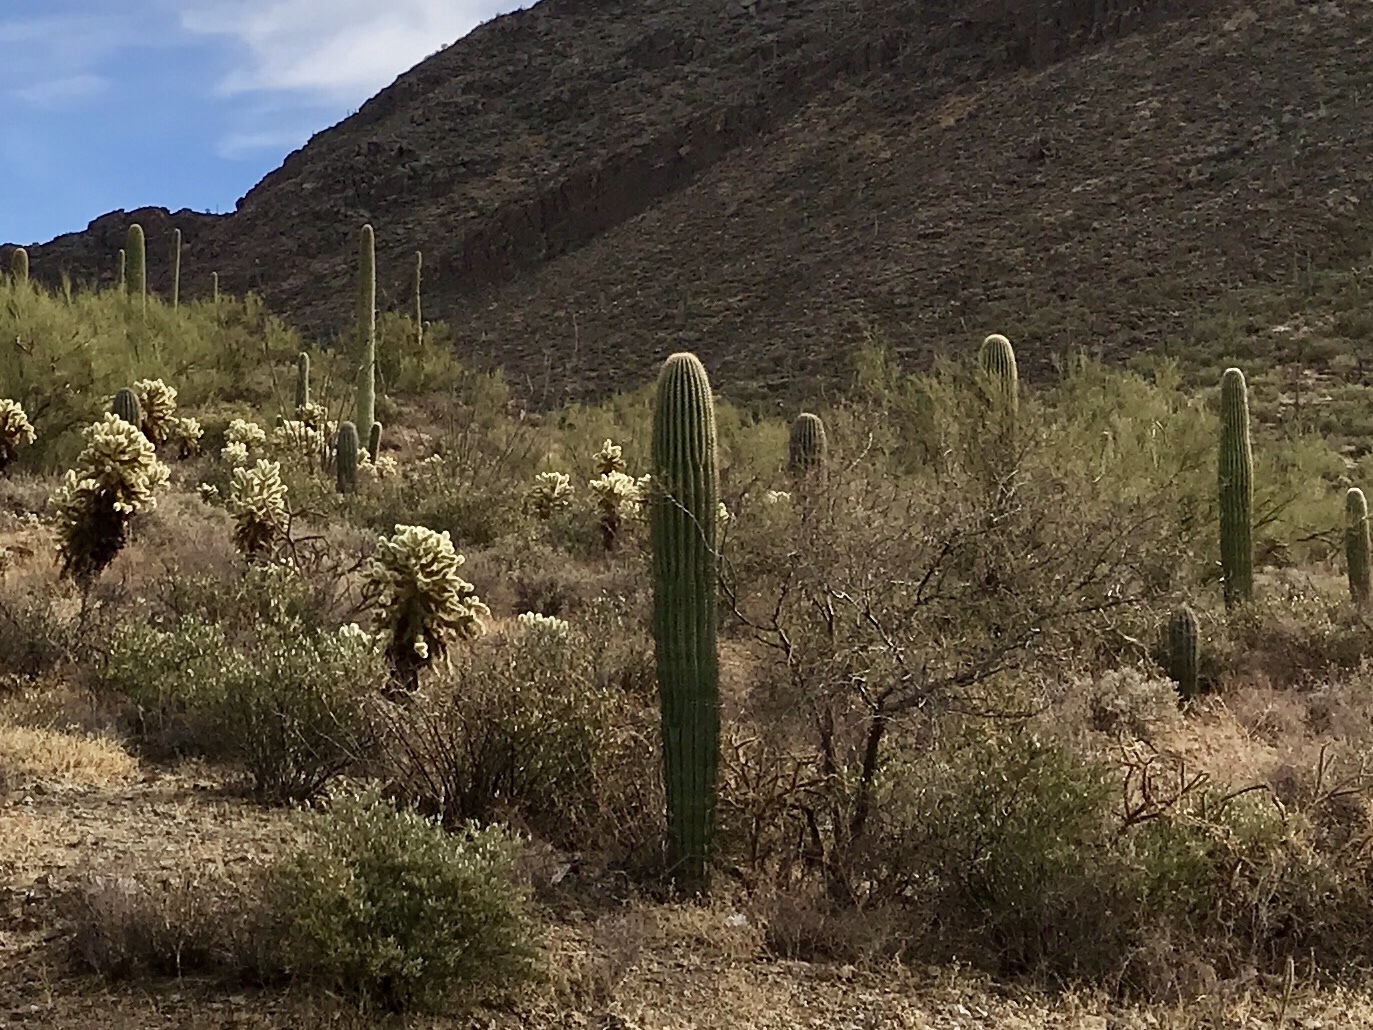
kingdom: Plantae
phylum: Tracheophyta
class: Magnoliopsida
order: Caryophyllales
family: Cactaceae
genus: Carnegiea
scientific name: Carnegiea gigantea
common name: Saguaro
